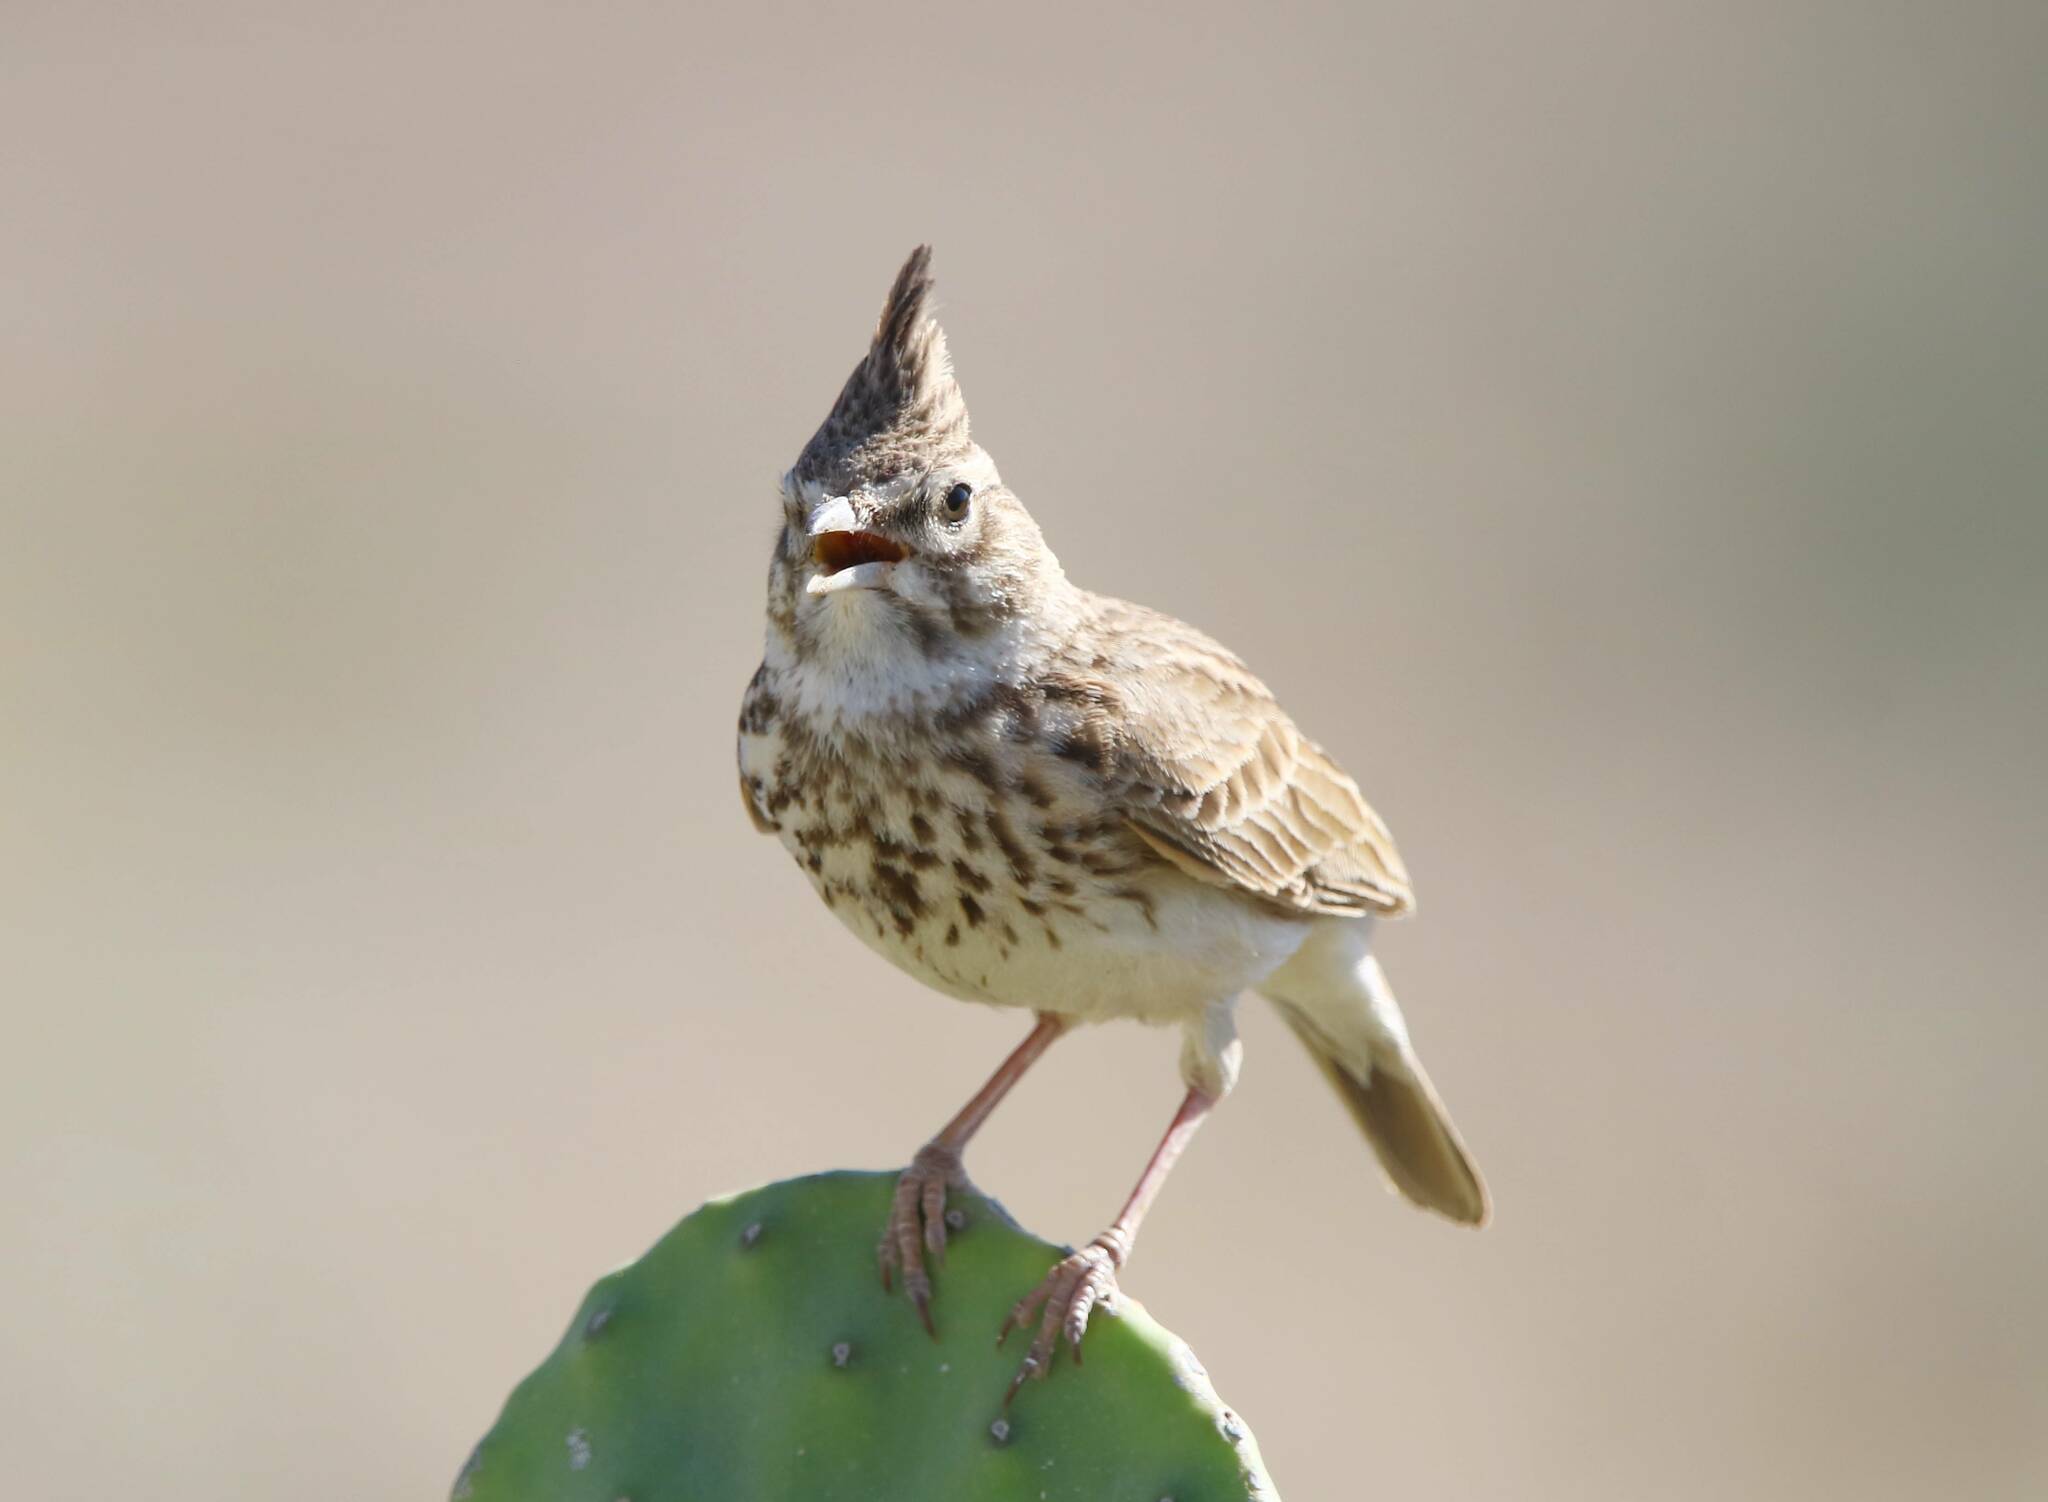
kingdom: Animalia
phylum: Chordata
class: Aves
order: Passeriformes
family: Alaudidae
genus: Galerida
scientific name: Galerida theklae
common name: Thekla lark
